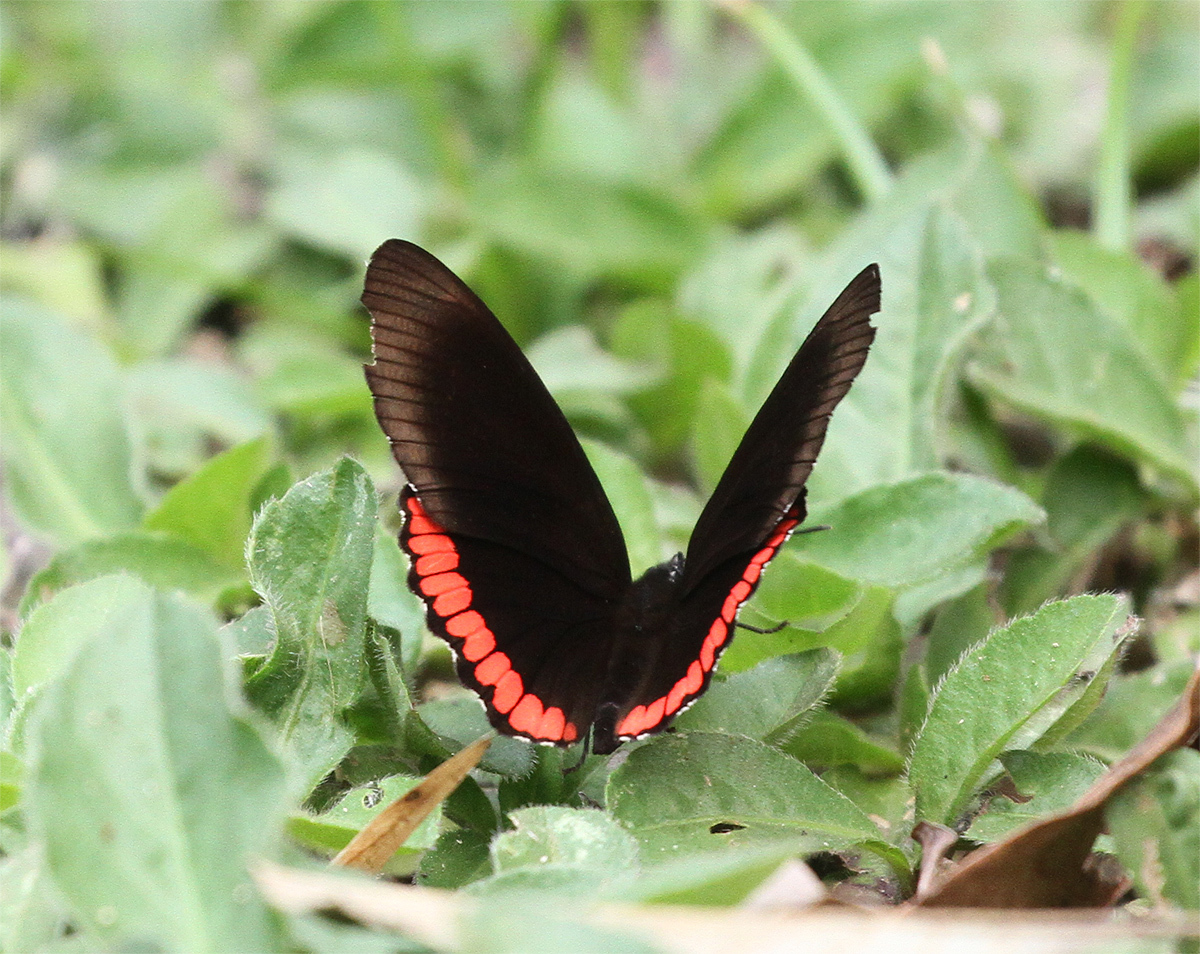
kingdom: Animalia
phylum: Arthropoda
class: Insecta
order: Lepidoptera
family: Sesiidae
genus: Sesia
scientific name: Sesia Biblis hyperia
